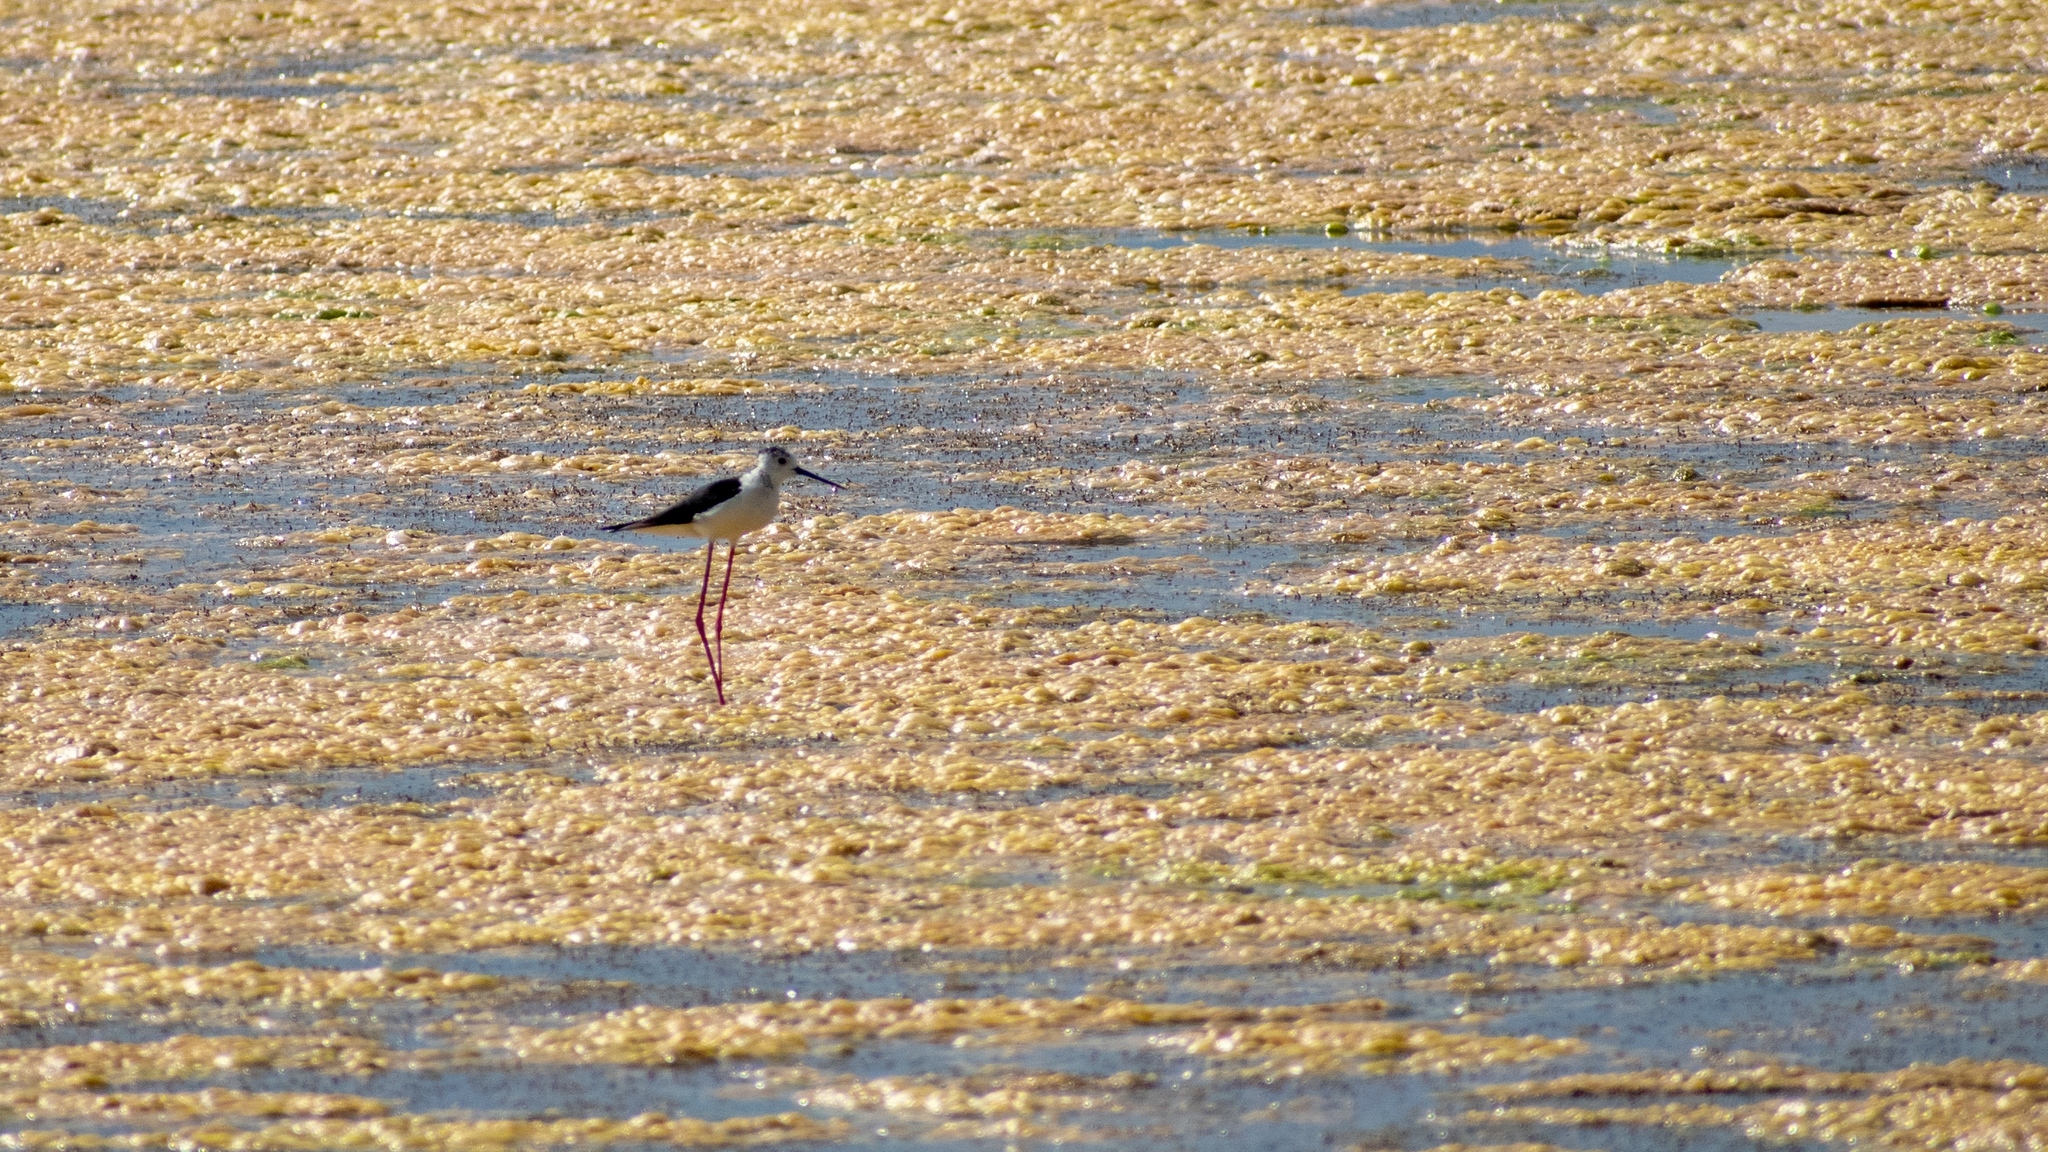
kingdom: Animalia
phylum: Chordata
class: Aves
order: Charadriiformes
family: Recurvirostridae
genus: Himantopus
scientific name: Himantopus himantopus
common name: Black-winged stilt
